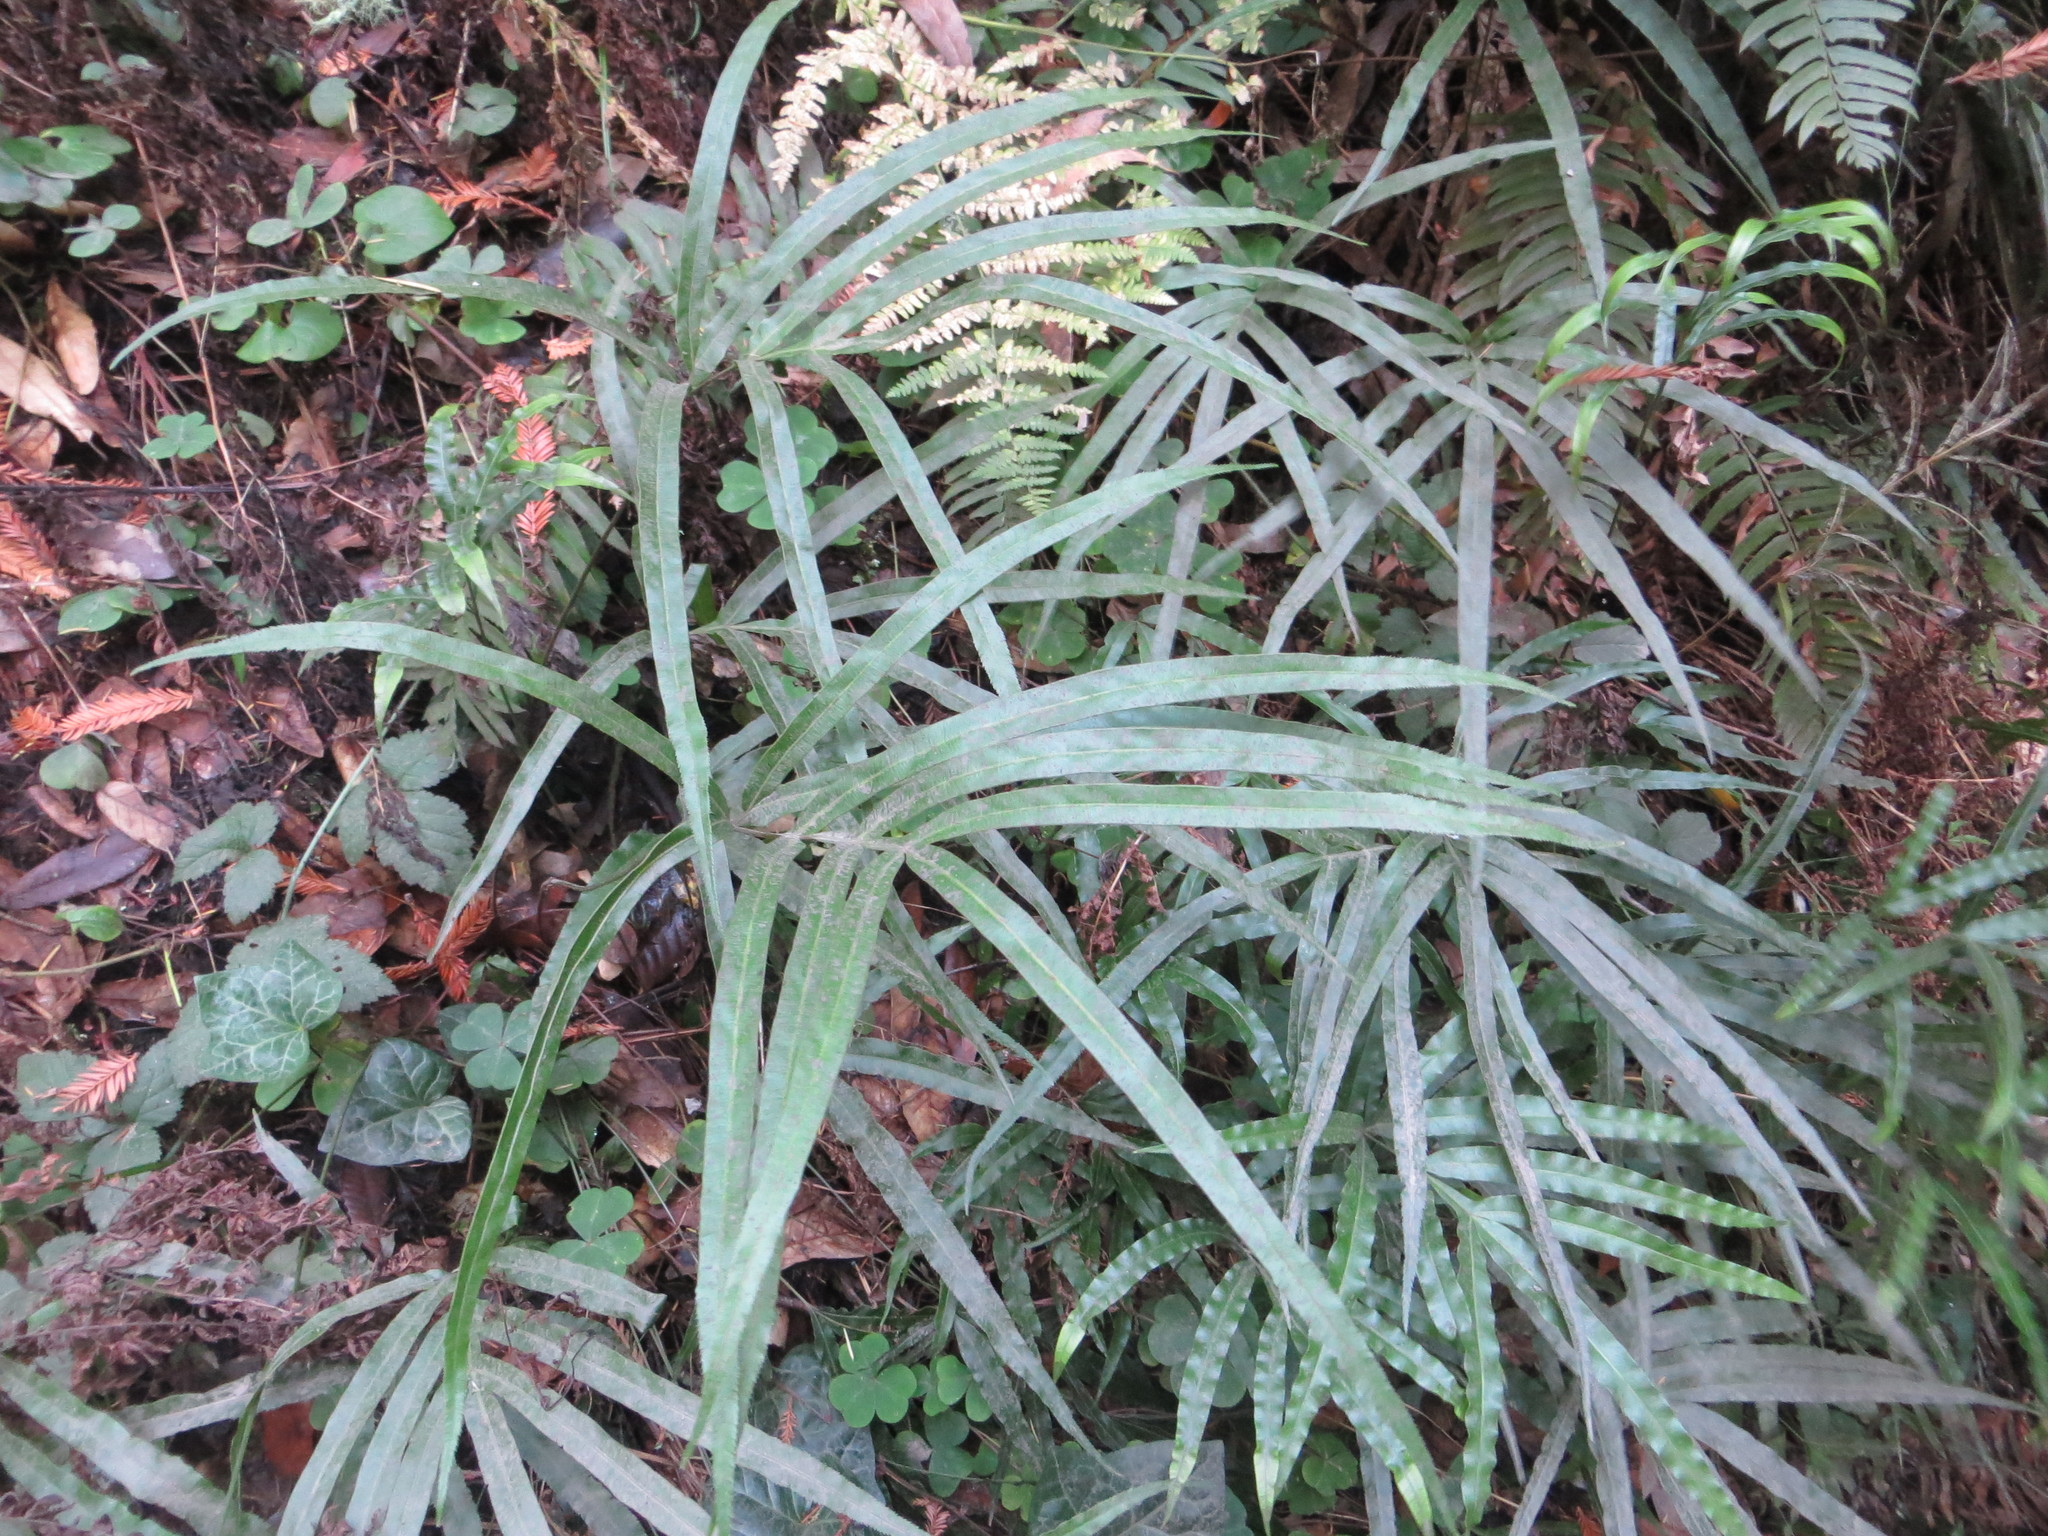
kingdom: Plantae
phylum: Tracheophyta
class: Polypodiopsida
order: Polypodiales
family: Pteridaceae
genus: Pteris
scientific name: Pteris cretica
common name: Ribbon fern
